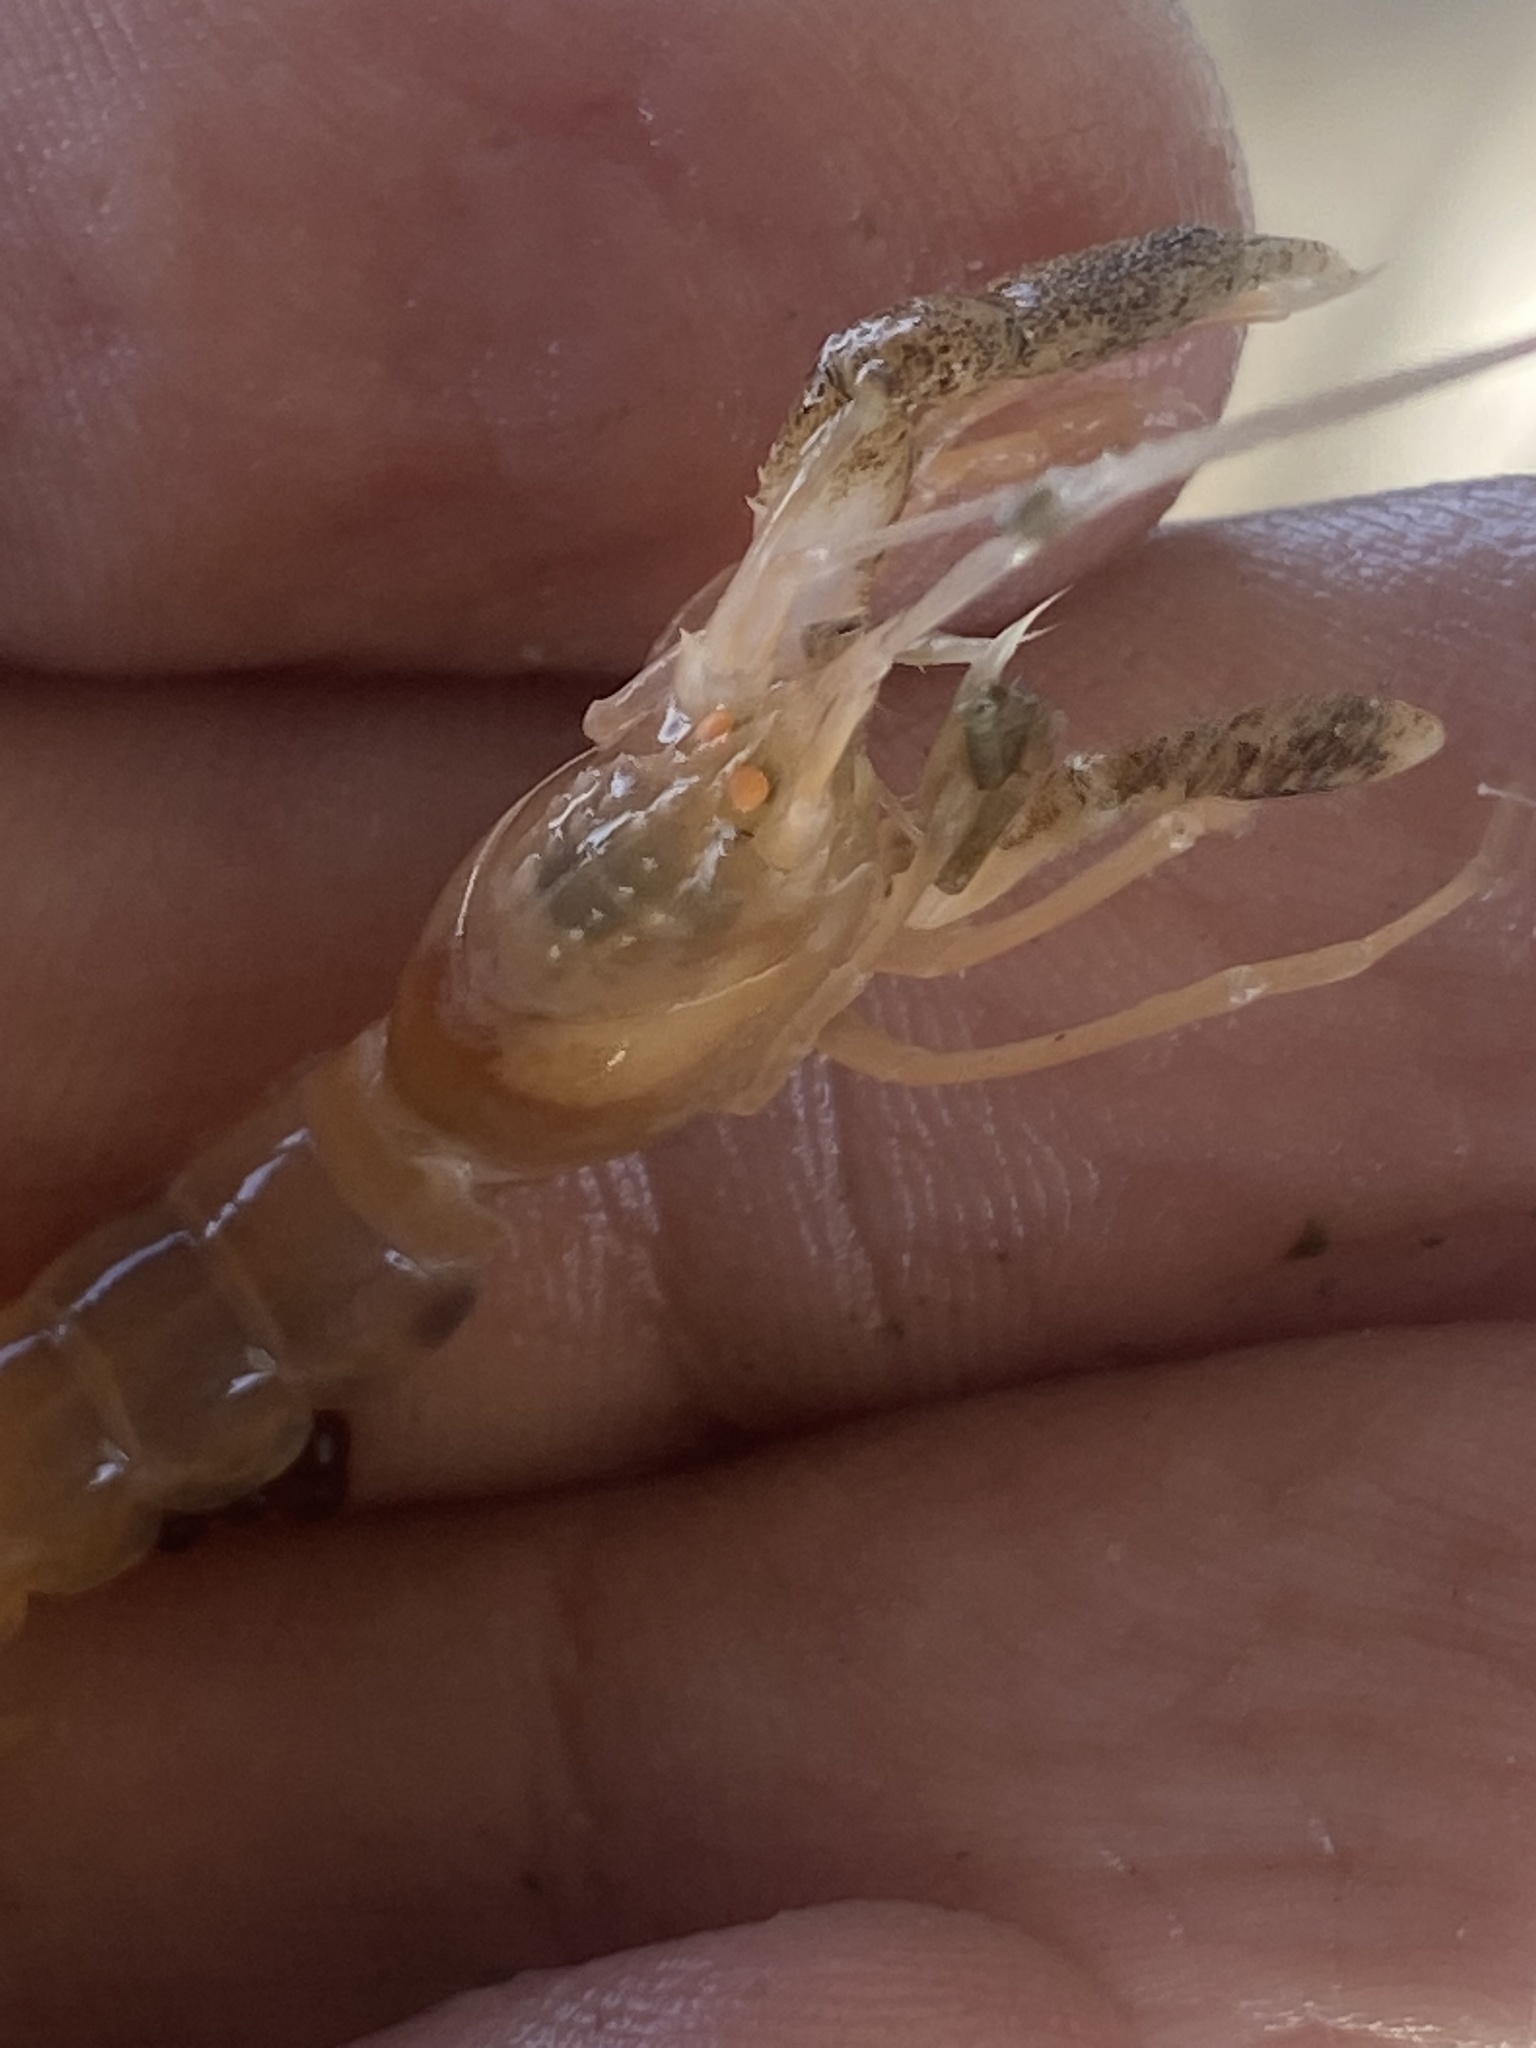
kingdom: Animalia
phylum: Arthropoda
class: Malacostraca
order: Decapoda
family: Axiidae
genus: Calocarides
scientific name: Calocarides coronatus
